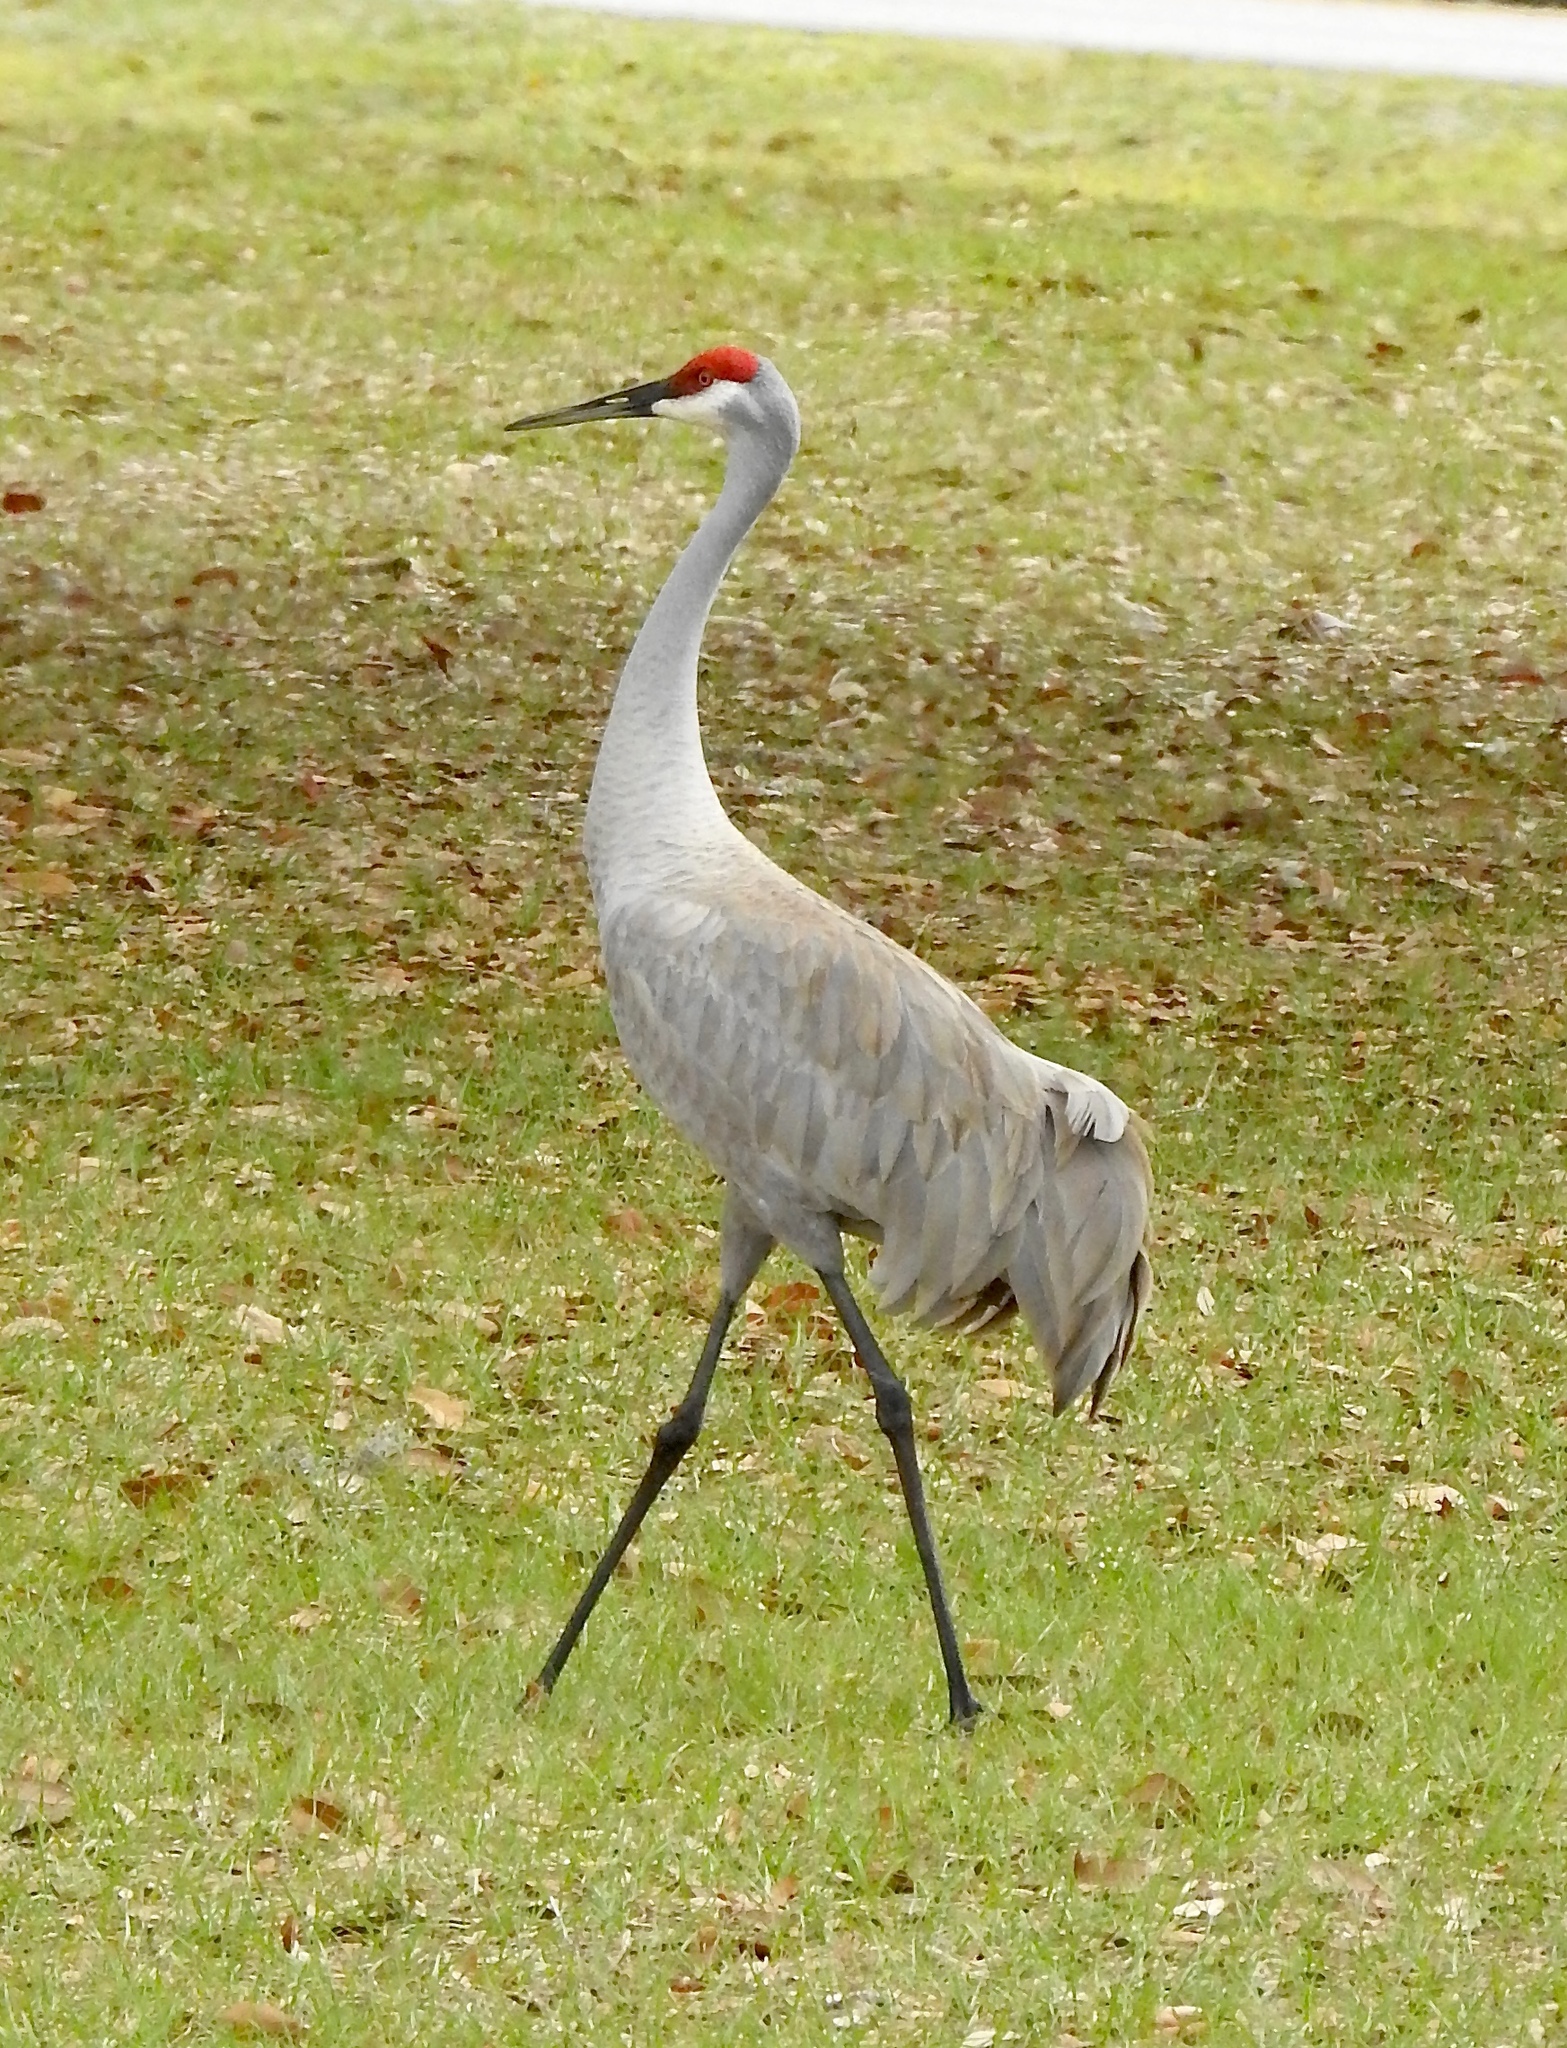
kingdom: Animalia
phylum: Chordata
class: Aves
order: Gruiformes
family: Gruidae
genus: Grus
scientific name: Grus canadensis
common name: Sandhill crane
